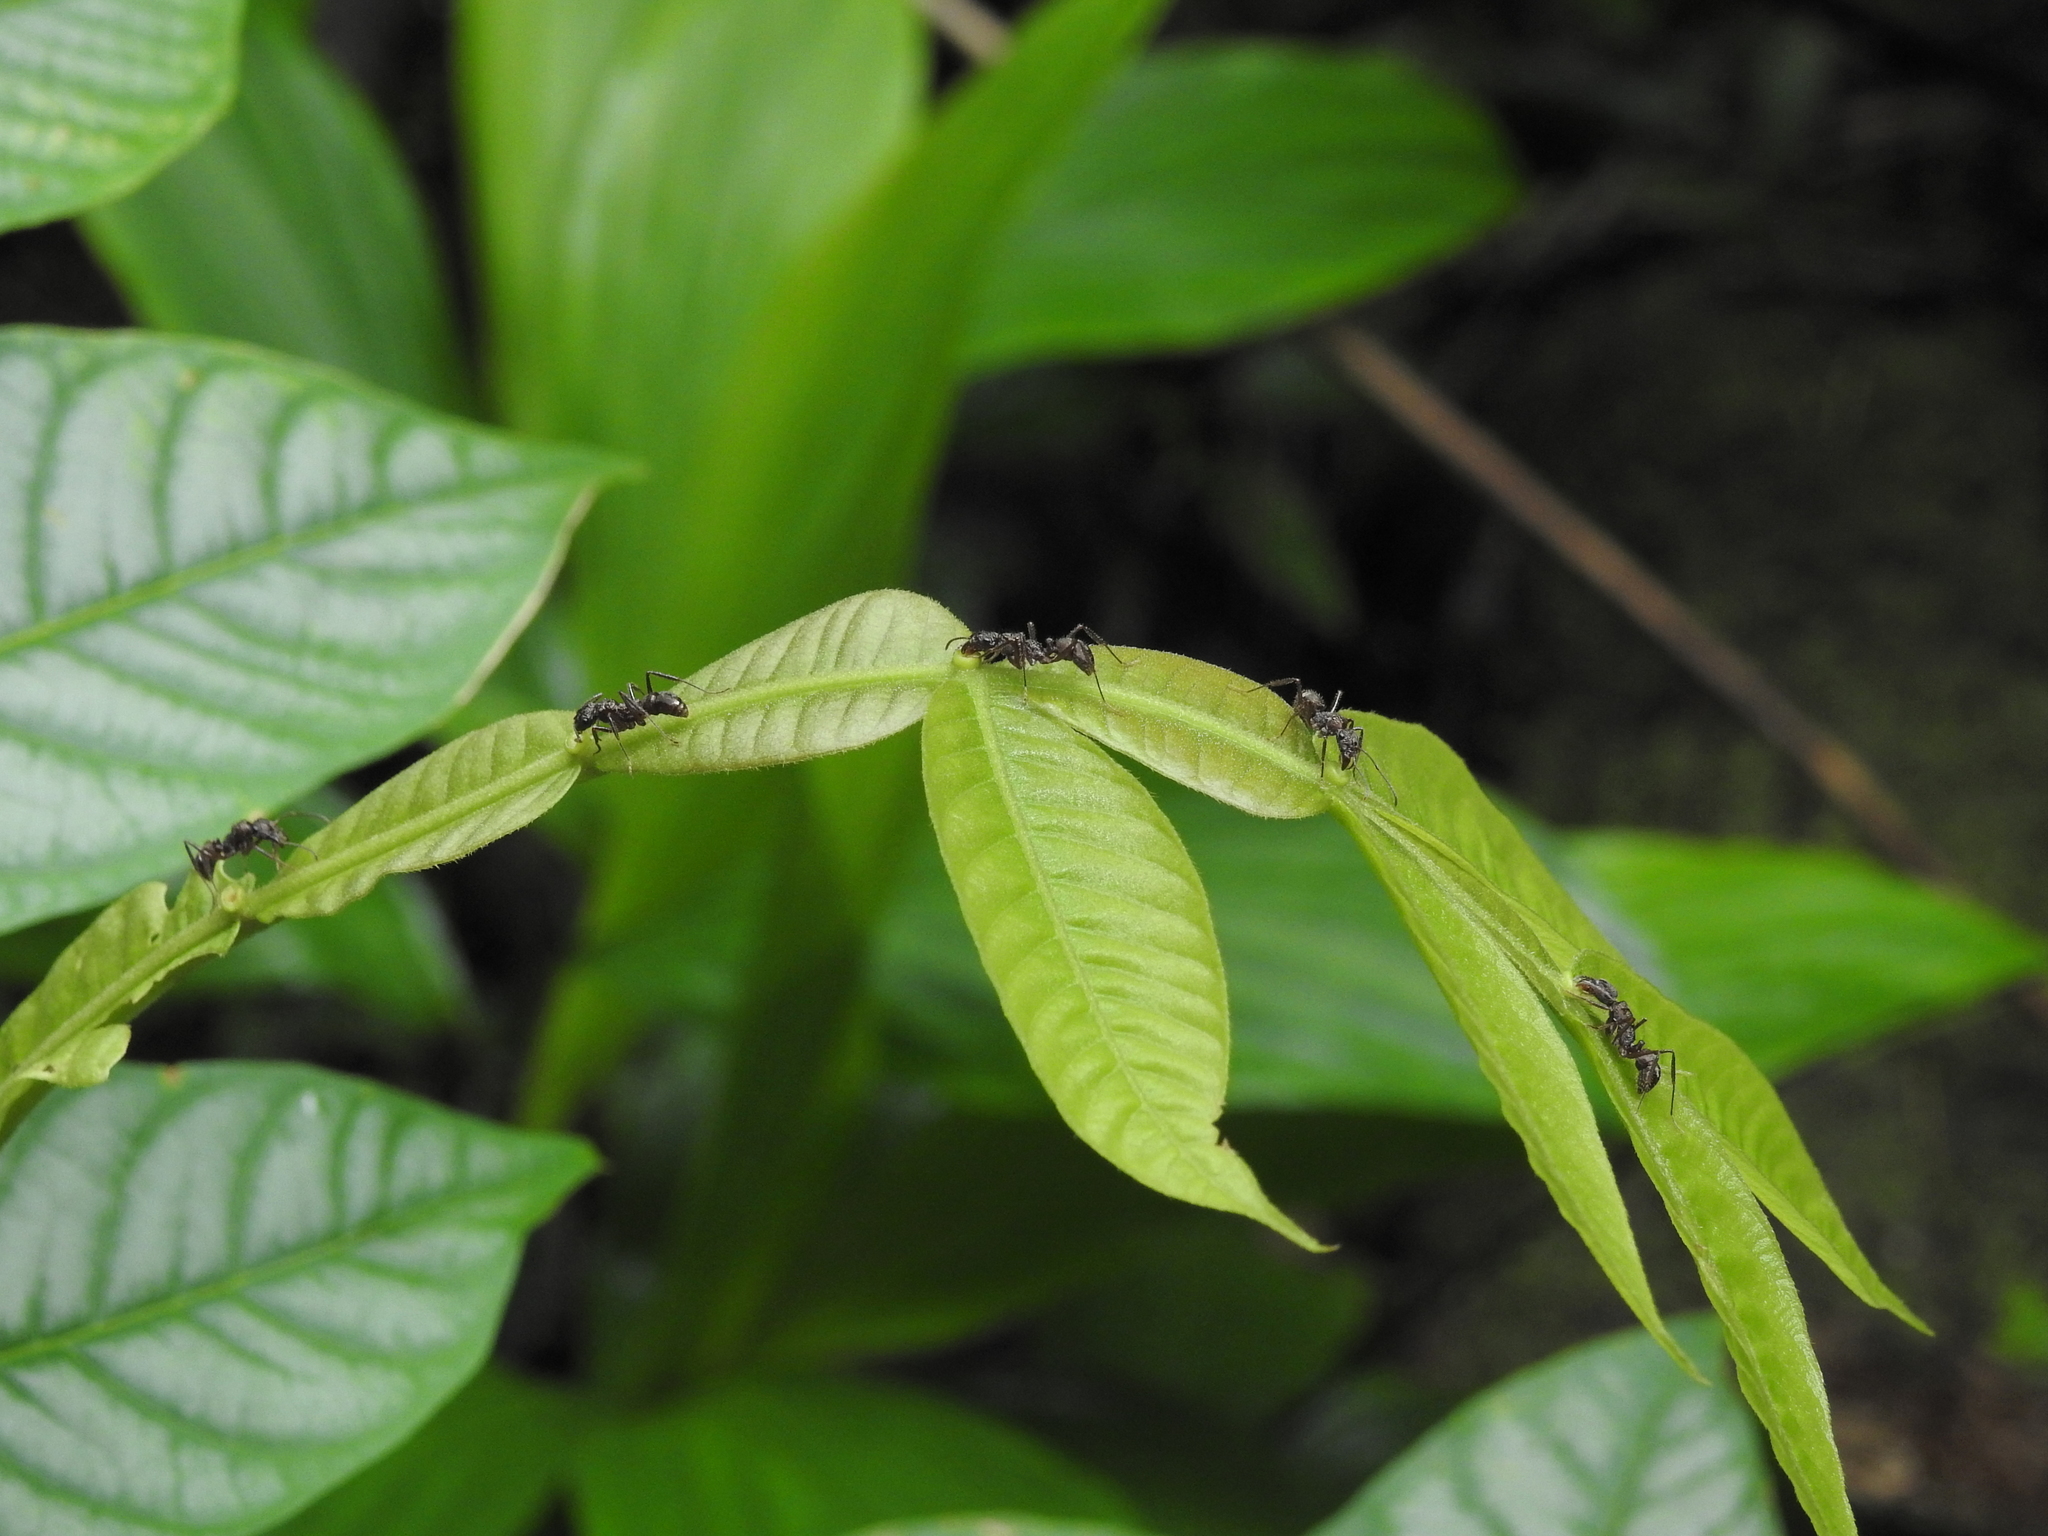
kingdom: Animalia
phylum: Arthropoda
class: Insecta
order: Hymenoptera
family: Formicidae
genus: Ectatomma
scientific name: Ectatomma ruidum
